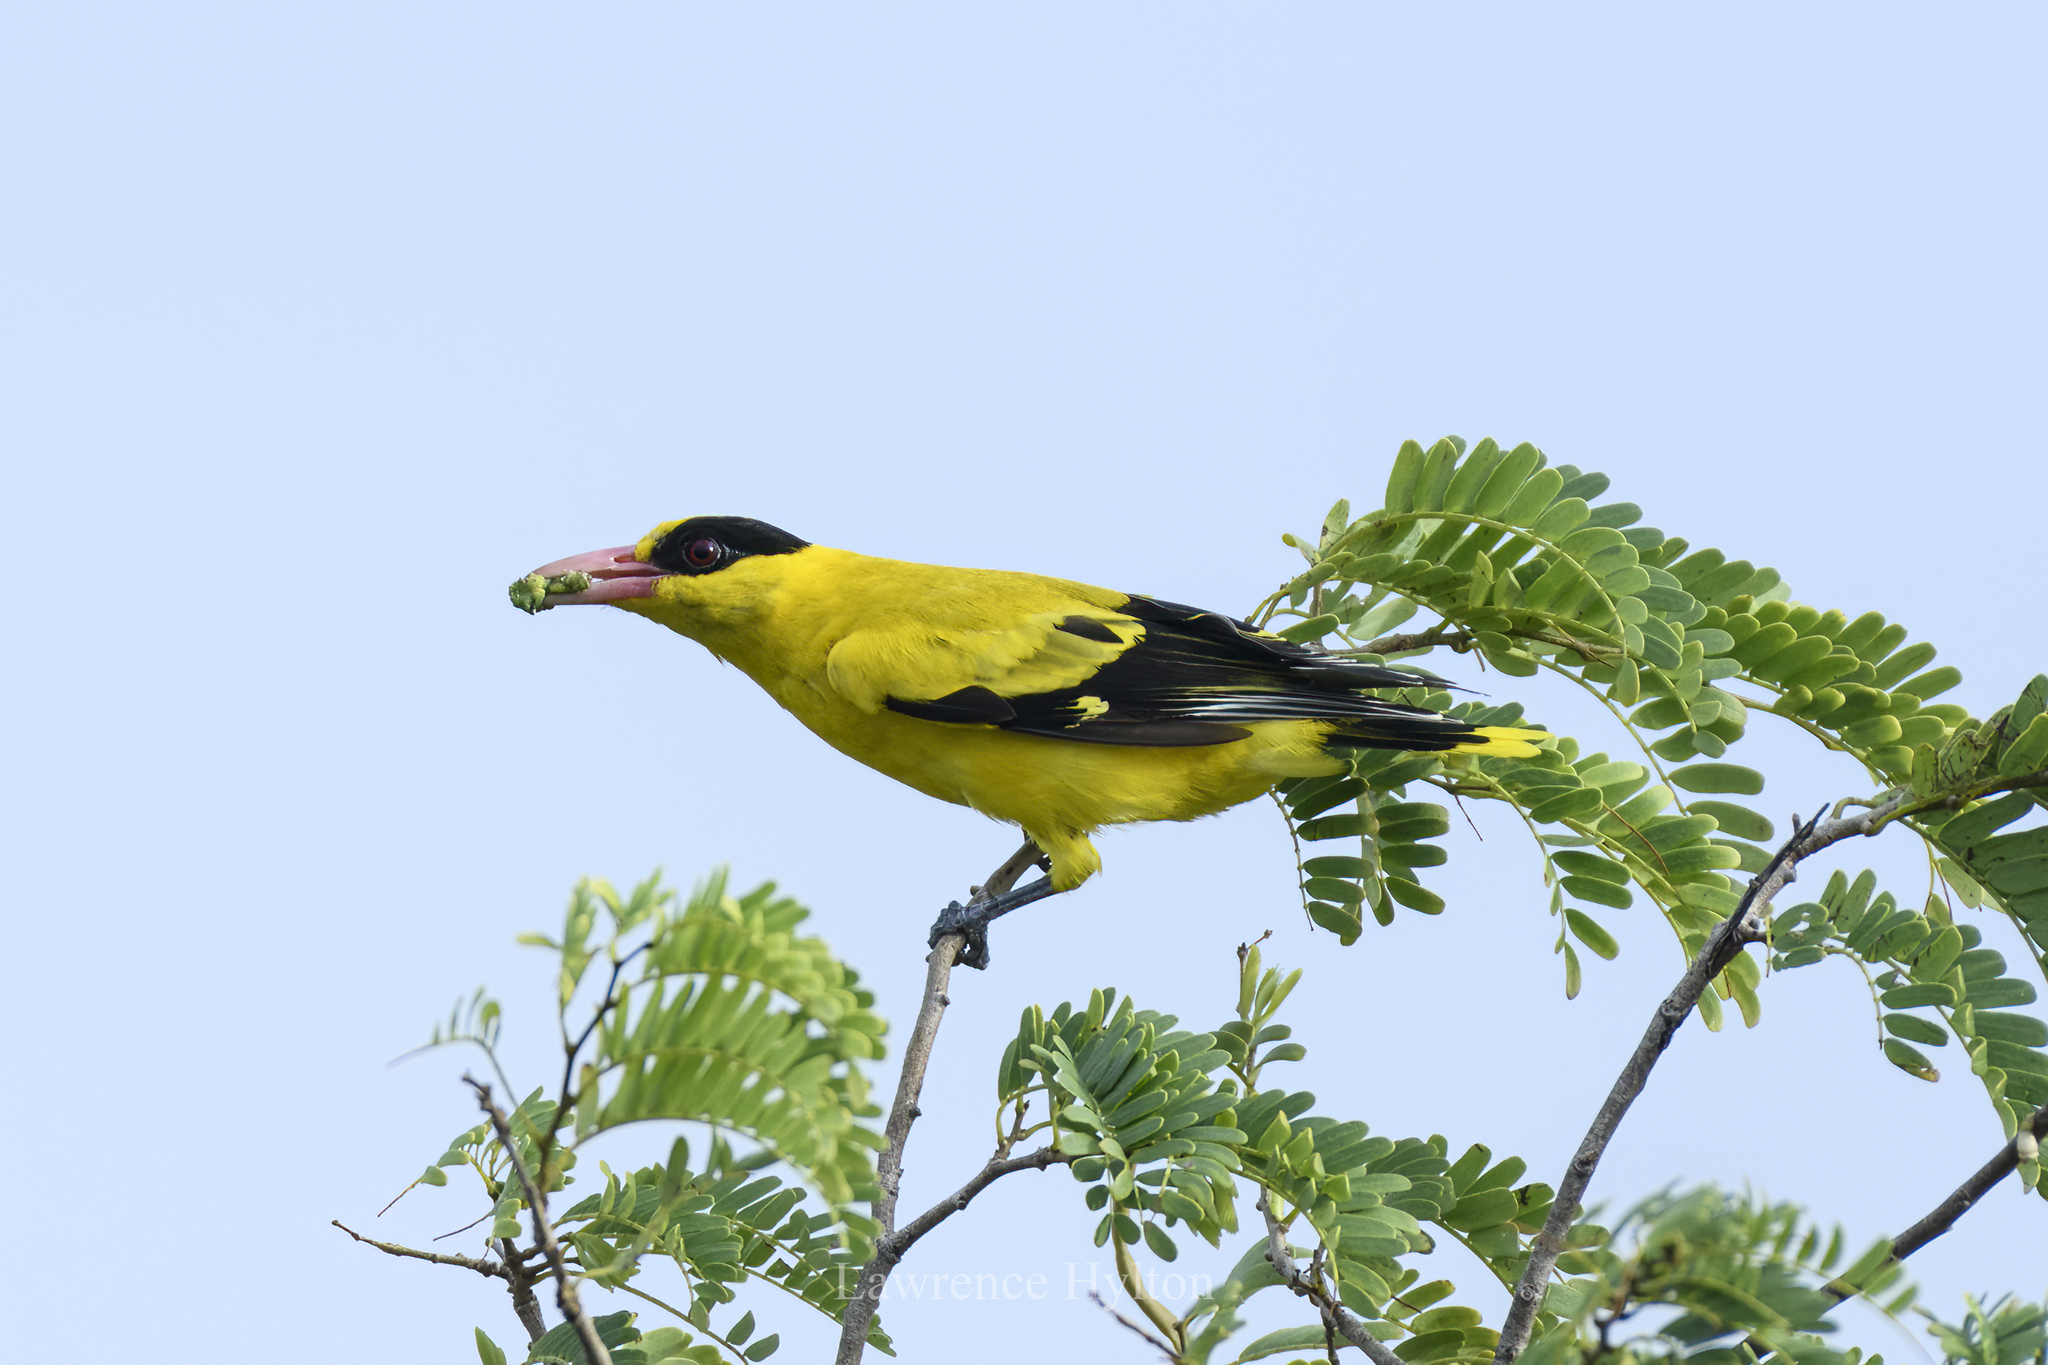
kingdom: Animalia
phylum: Chordata
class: Aves
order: Passeriformes
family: Oriolidae
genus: Oriolus
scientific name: Oriolus chinensis
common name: Black-naped oriole
